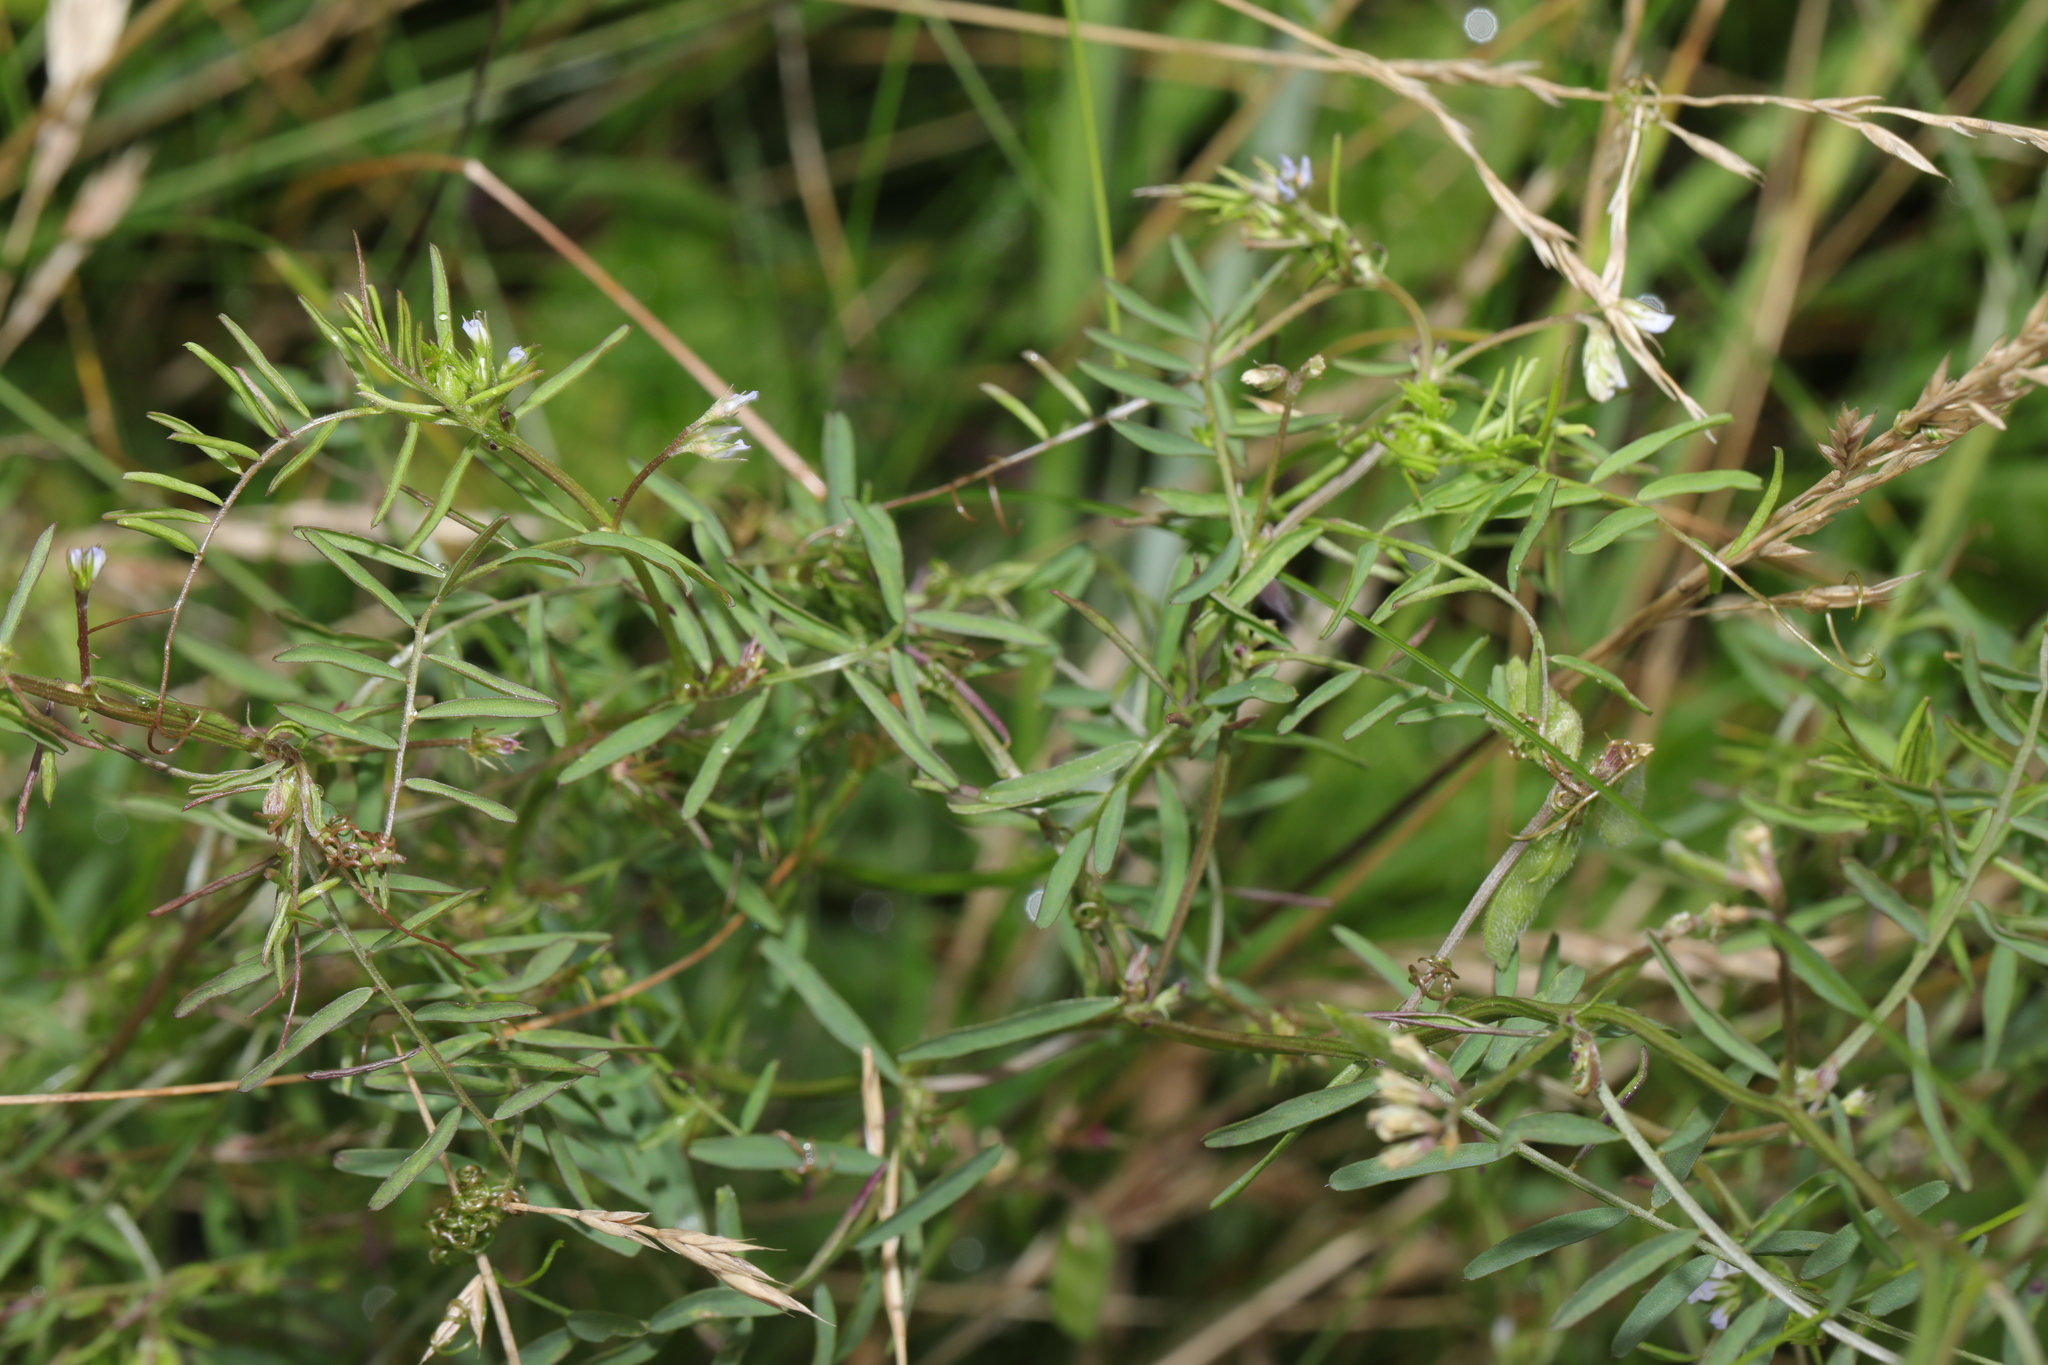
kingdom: Plantae
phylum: Tracheophyta
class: Magnoliopsida
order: Fabales
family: Fabaceae
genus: Vicia
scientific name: Vicia hirsuta
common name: Tiny vetch
